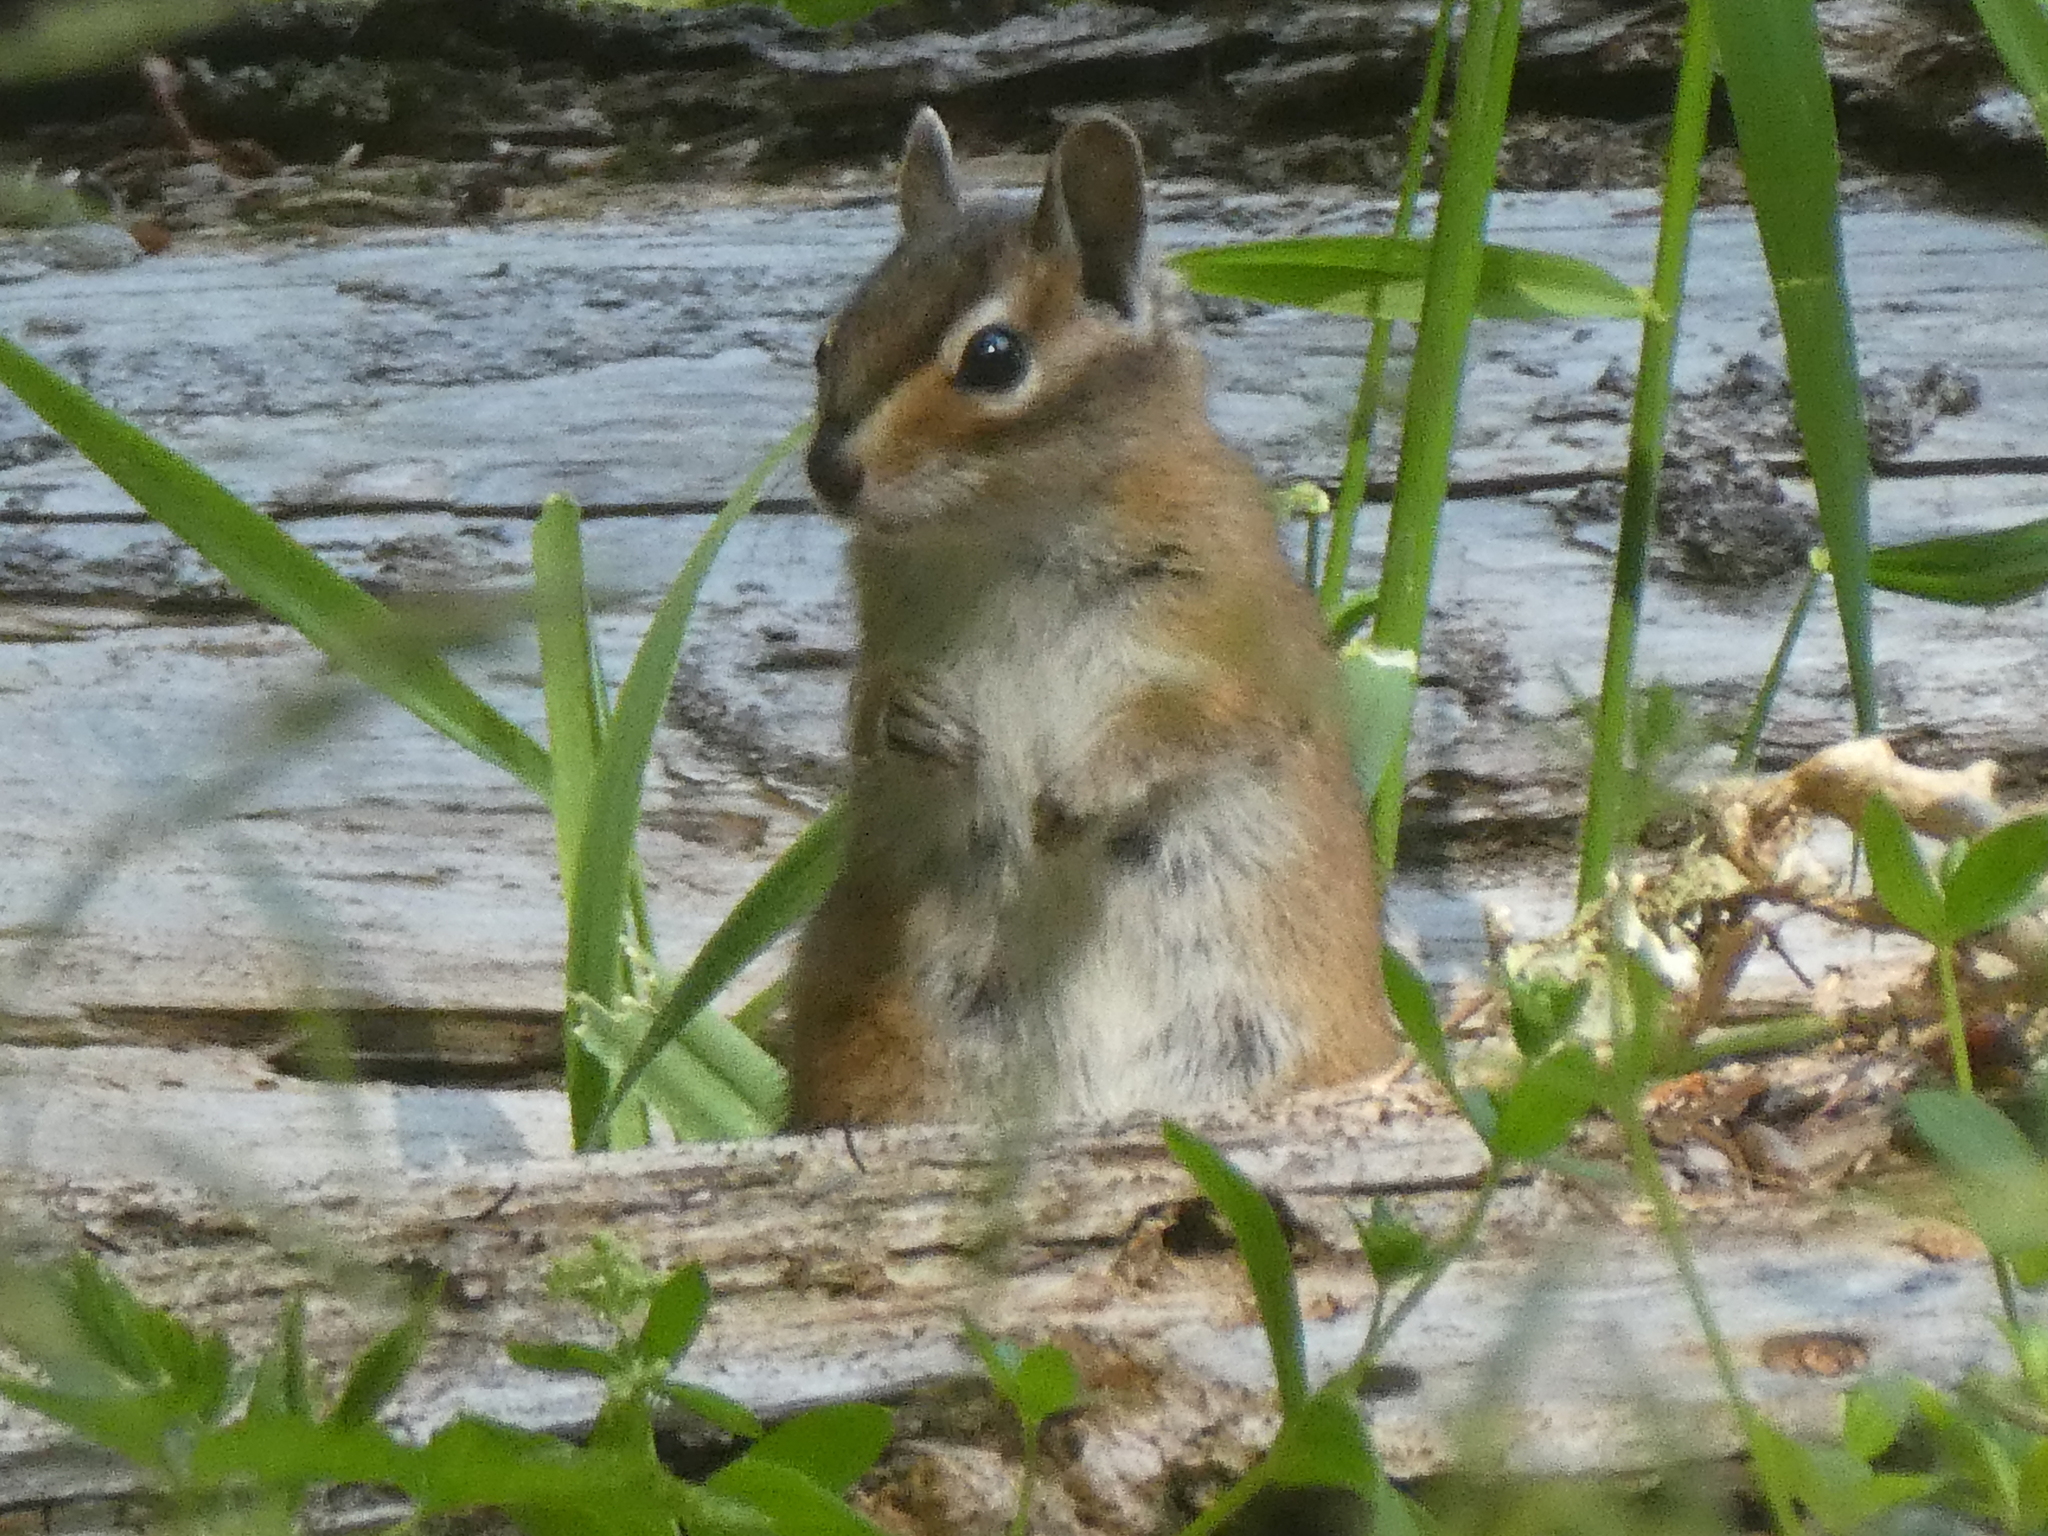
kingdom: Animalia
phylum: Chordata
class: Mammalia
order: Rodentia
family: Sciuridae
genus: Tamias
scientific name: Tamias townsendii
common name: Townsend's chipmunk
